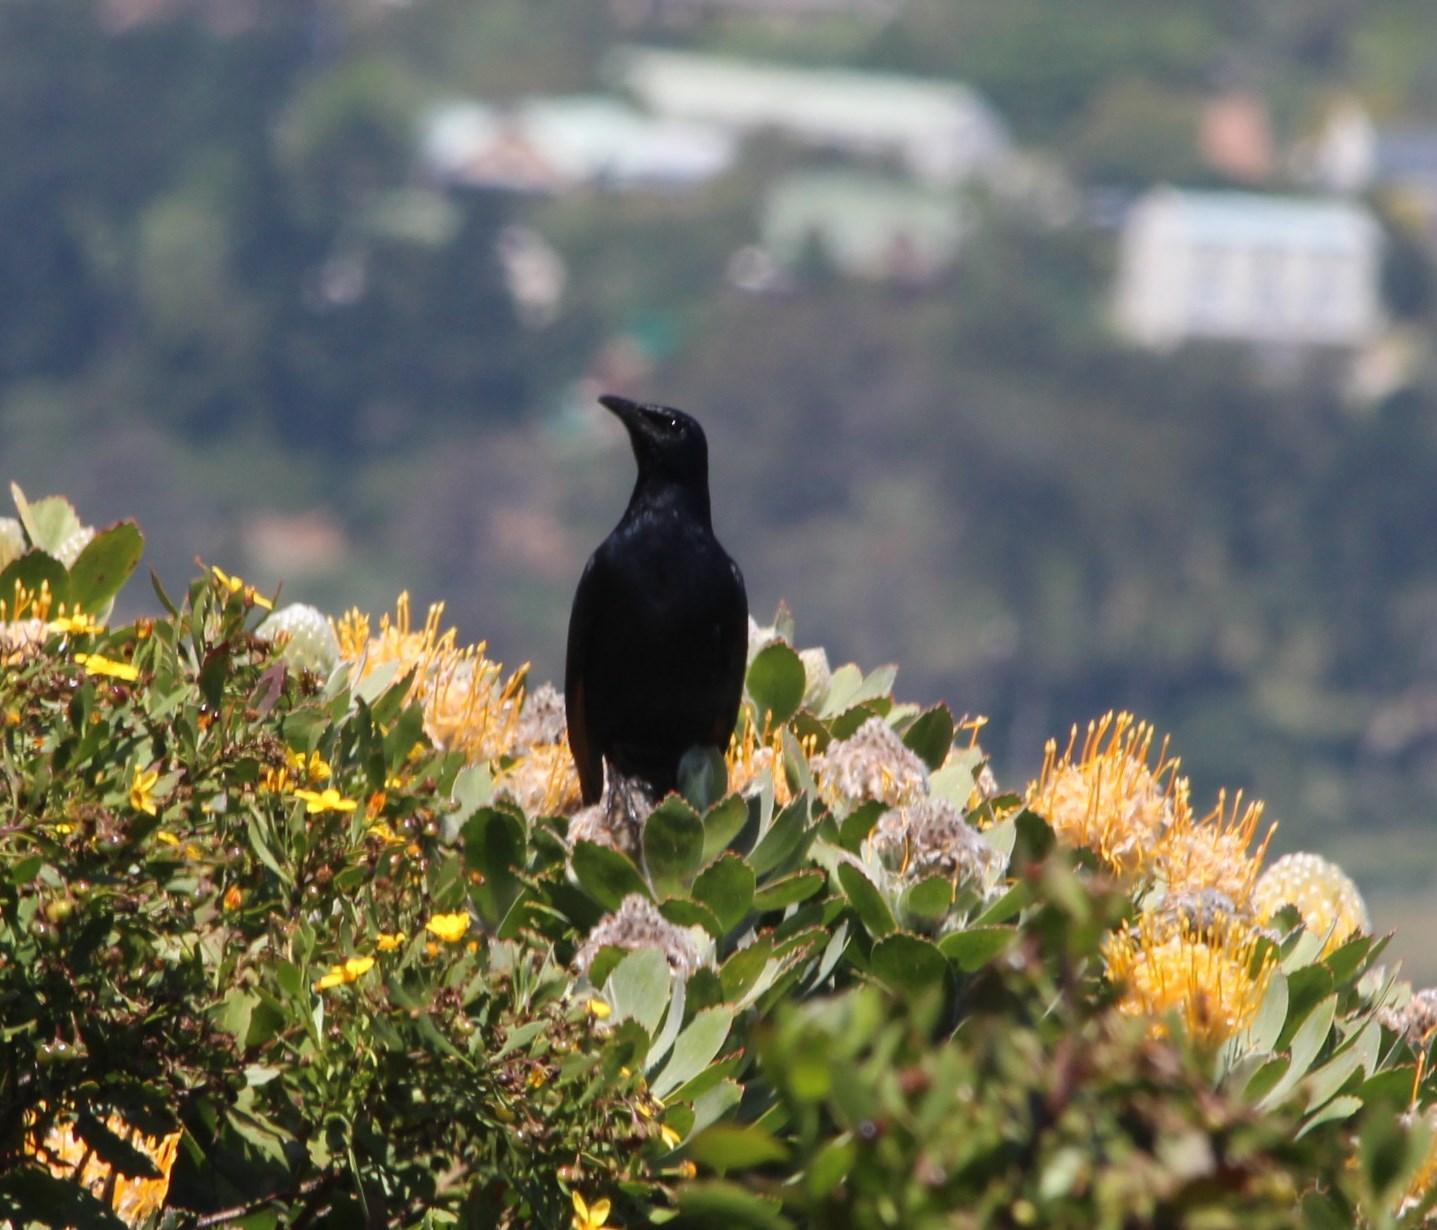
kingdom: Animalia
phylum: Chordata
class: Aves
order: Passeriformes
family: Sturnidae
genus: Onychognathus
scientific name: Onychognathus morio
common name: Red-winged starling
